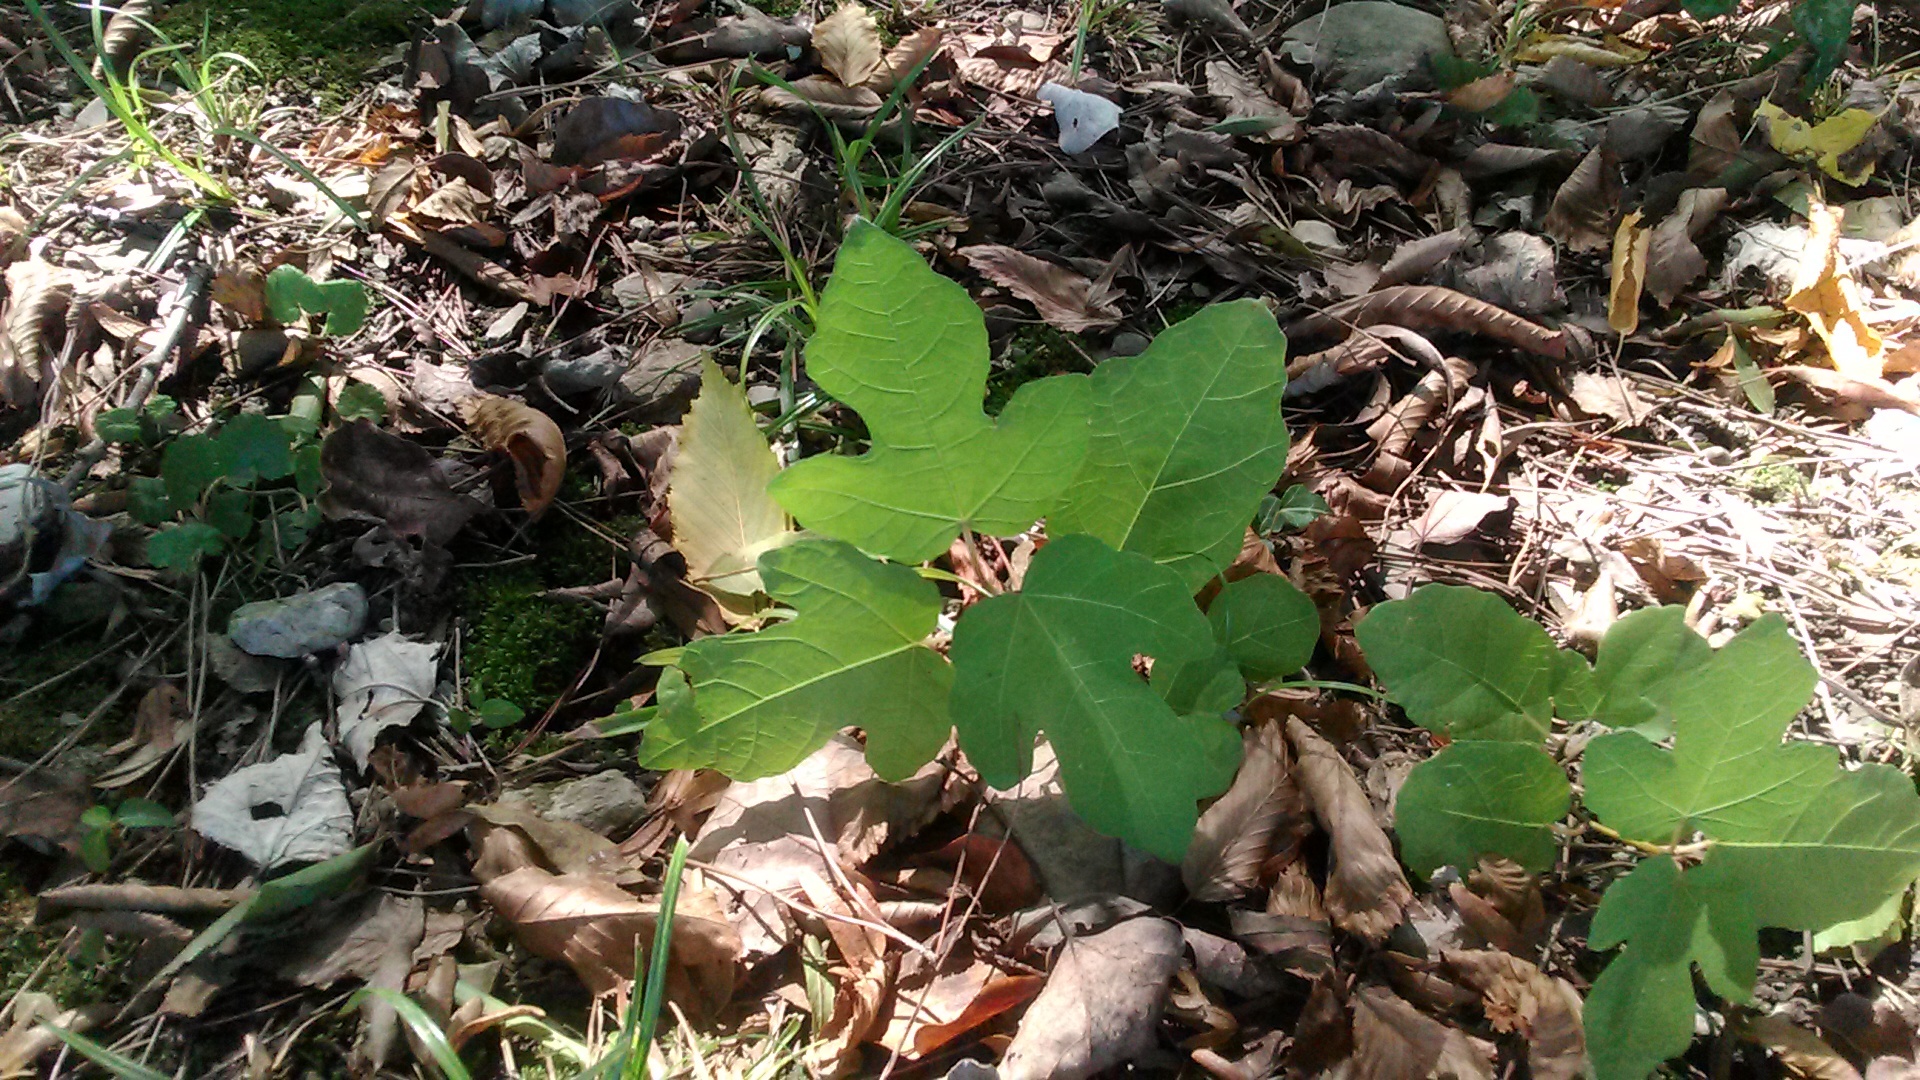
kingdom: Plantae
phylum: Tracheophyta
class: Magnoliopsida
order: Rosales
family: Moraceae
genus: Ficus
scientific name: Ficus carica
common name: Fig
